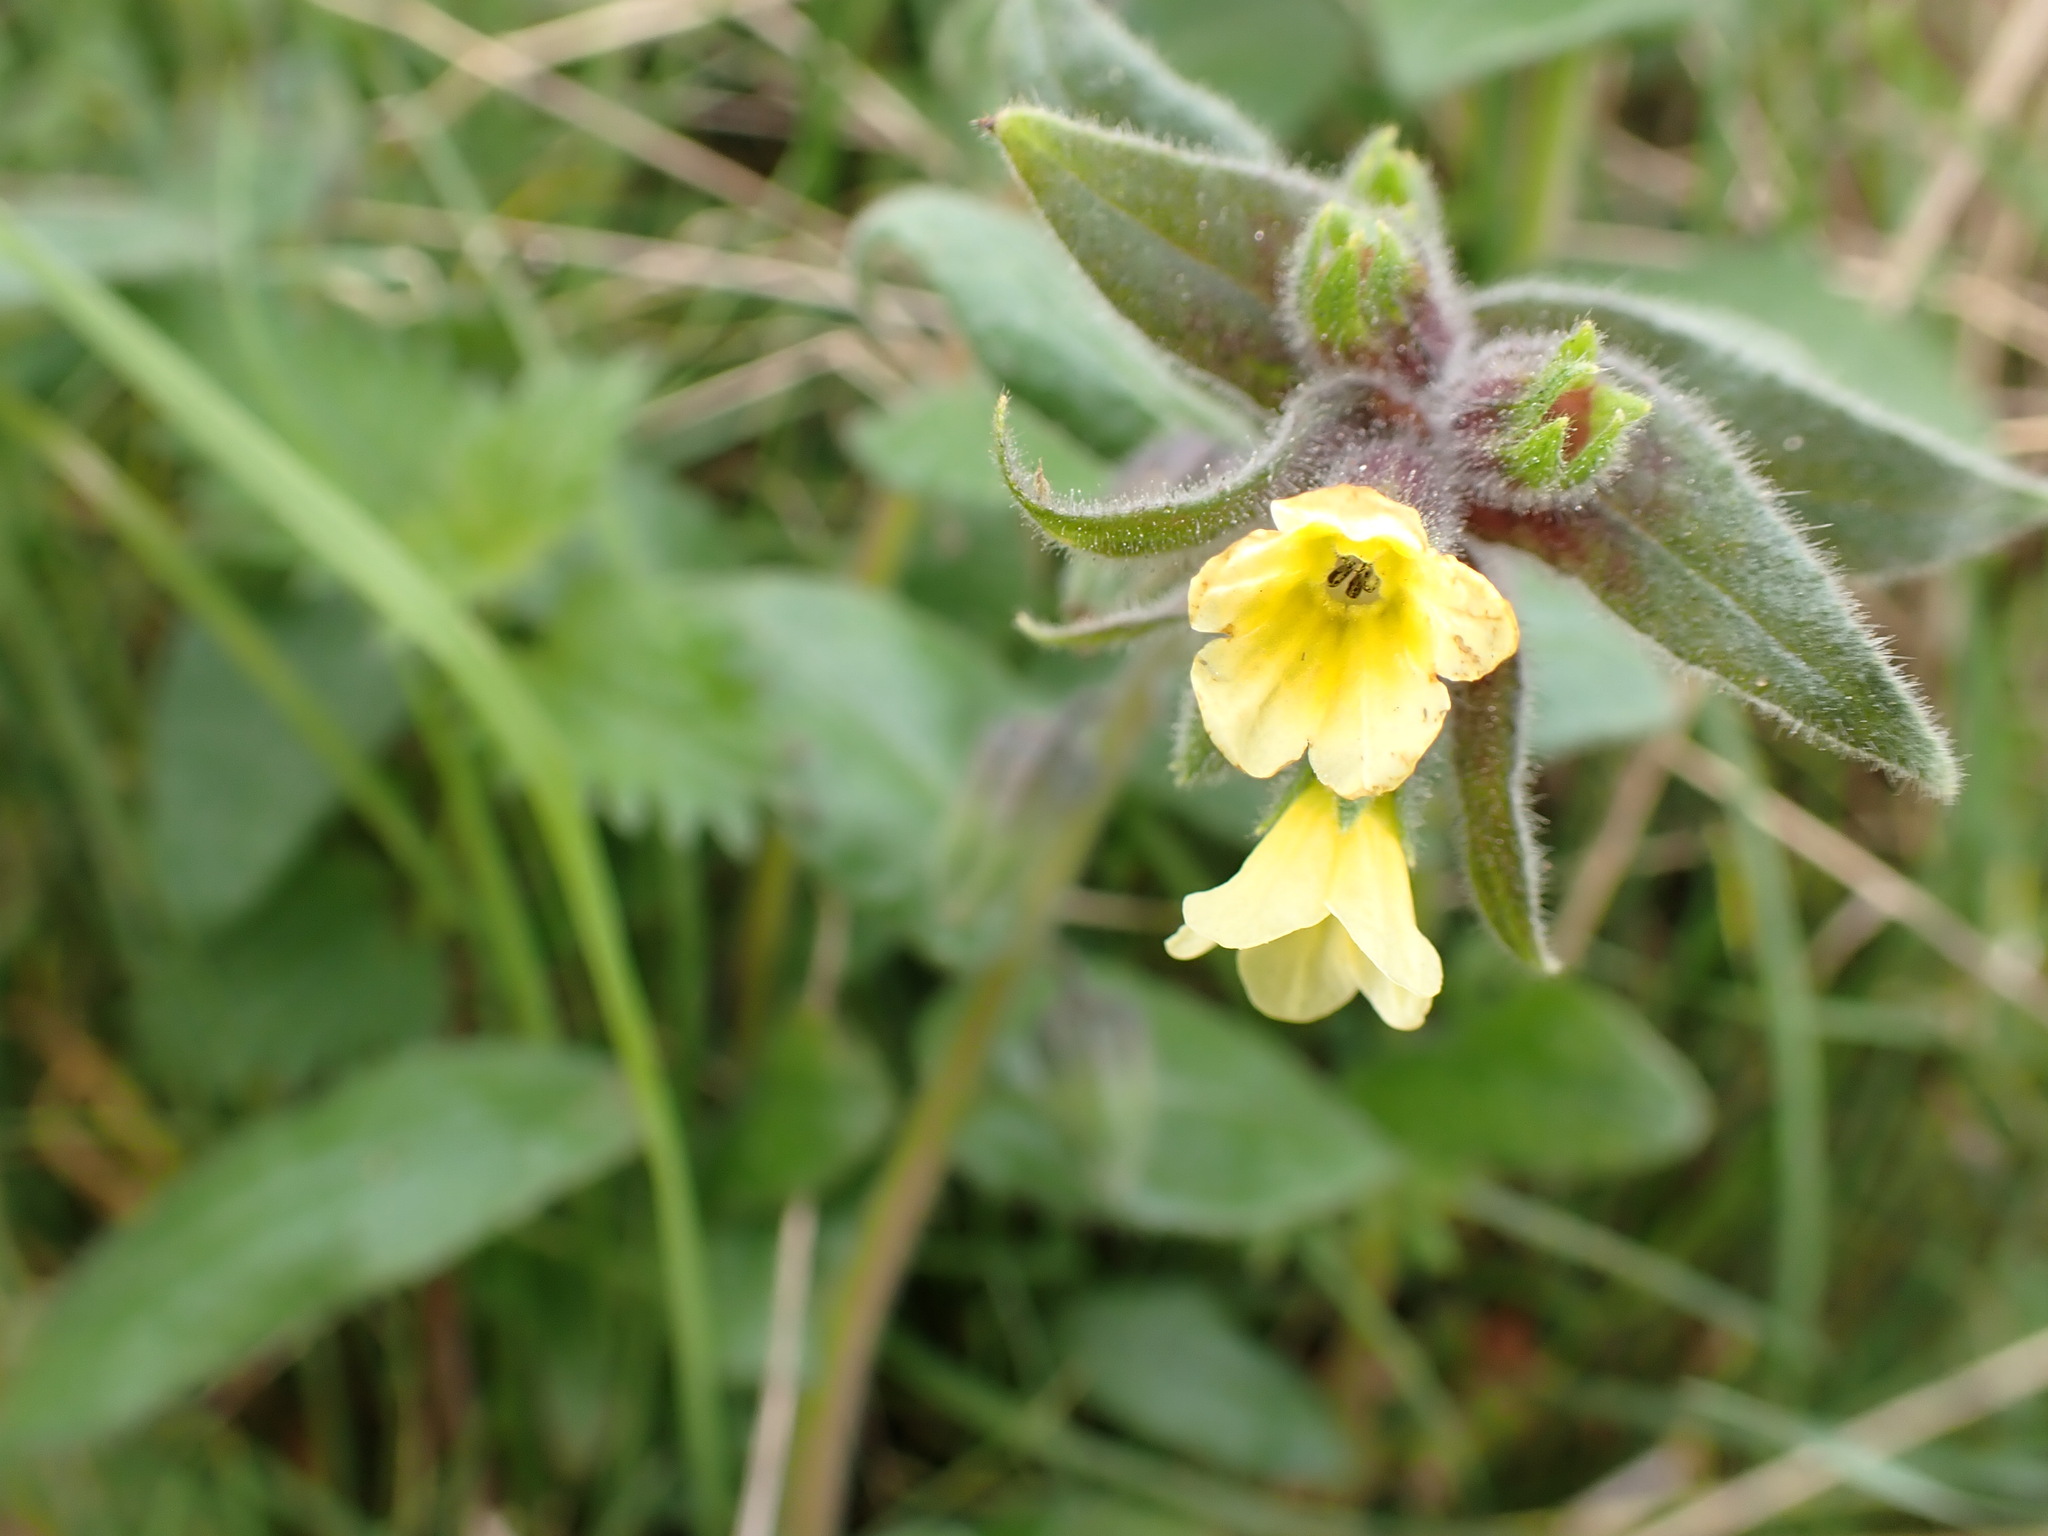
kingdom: Plantae
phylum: Tracheophyta
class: Magnoliopsida
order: Boraginales
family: Boraginaceae
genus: Nonea
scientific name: Nonea lutea
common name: Yellow nonea
